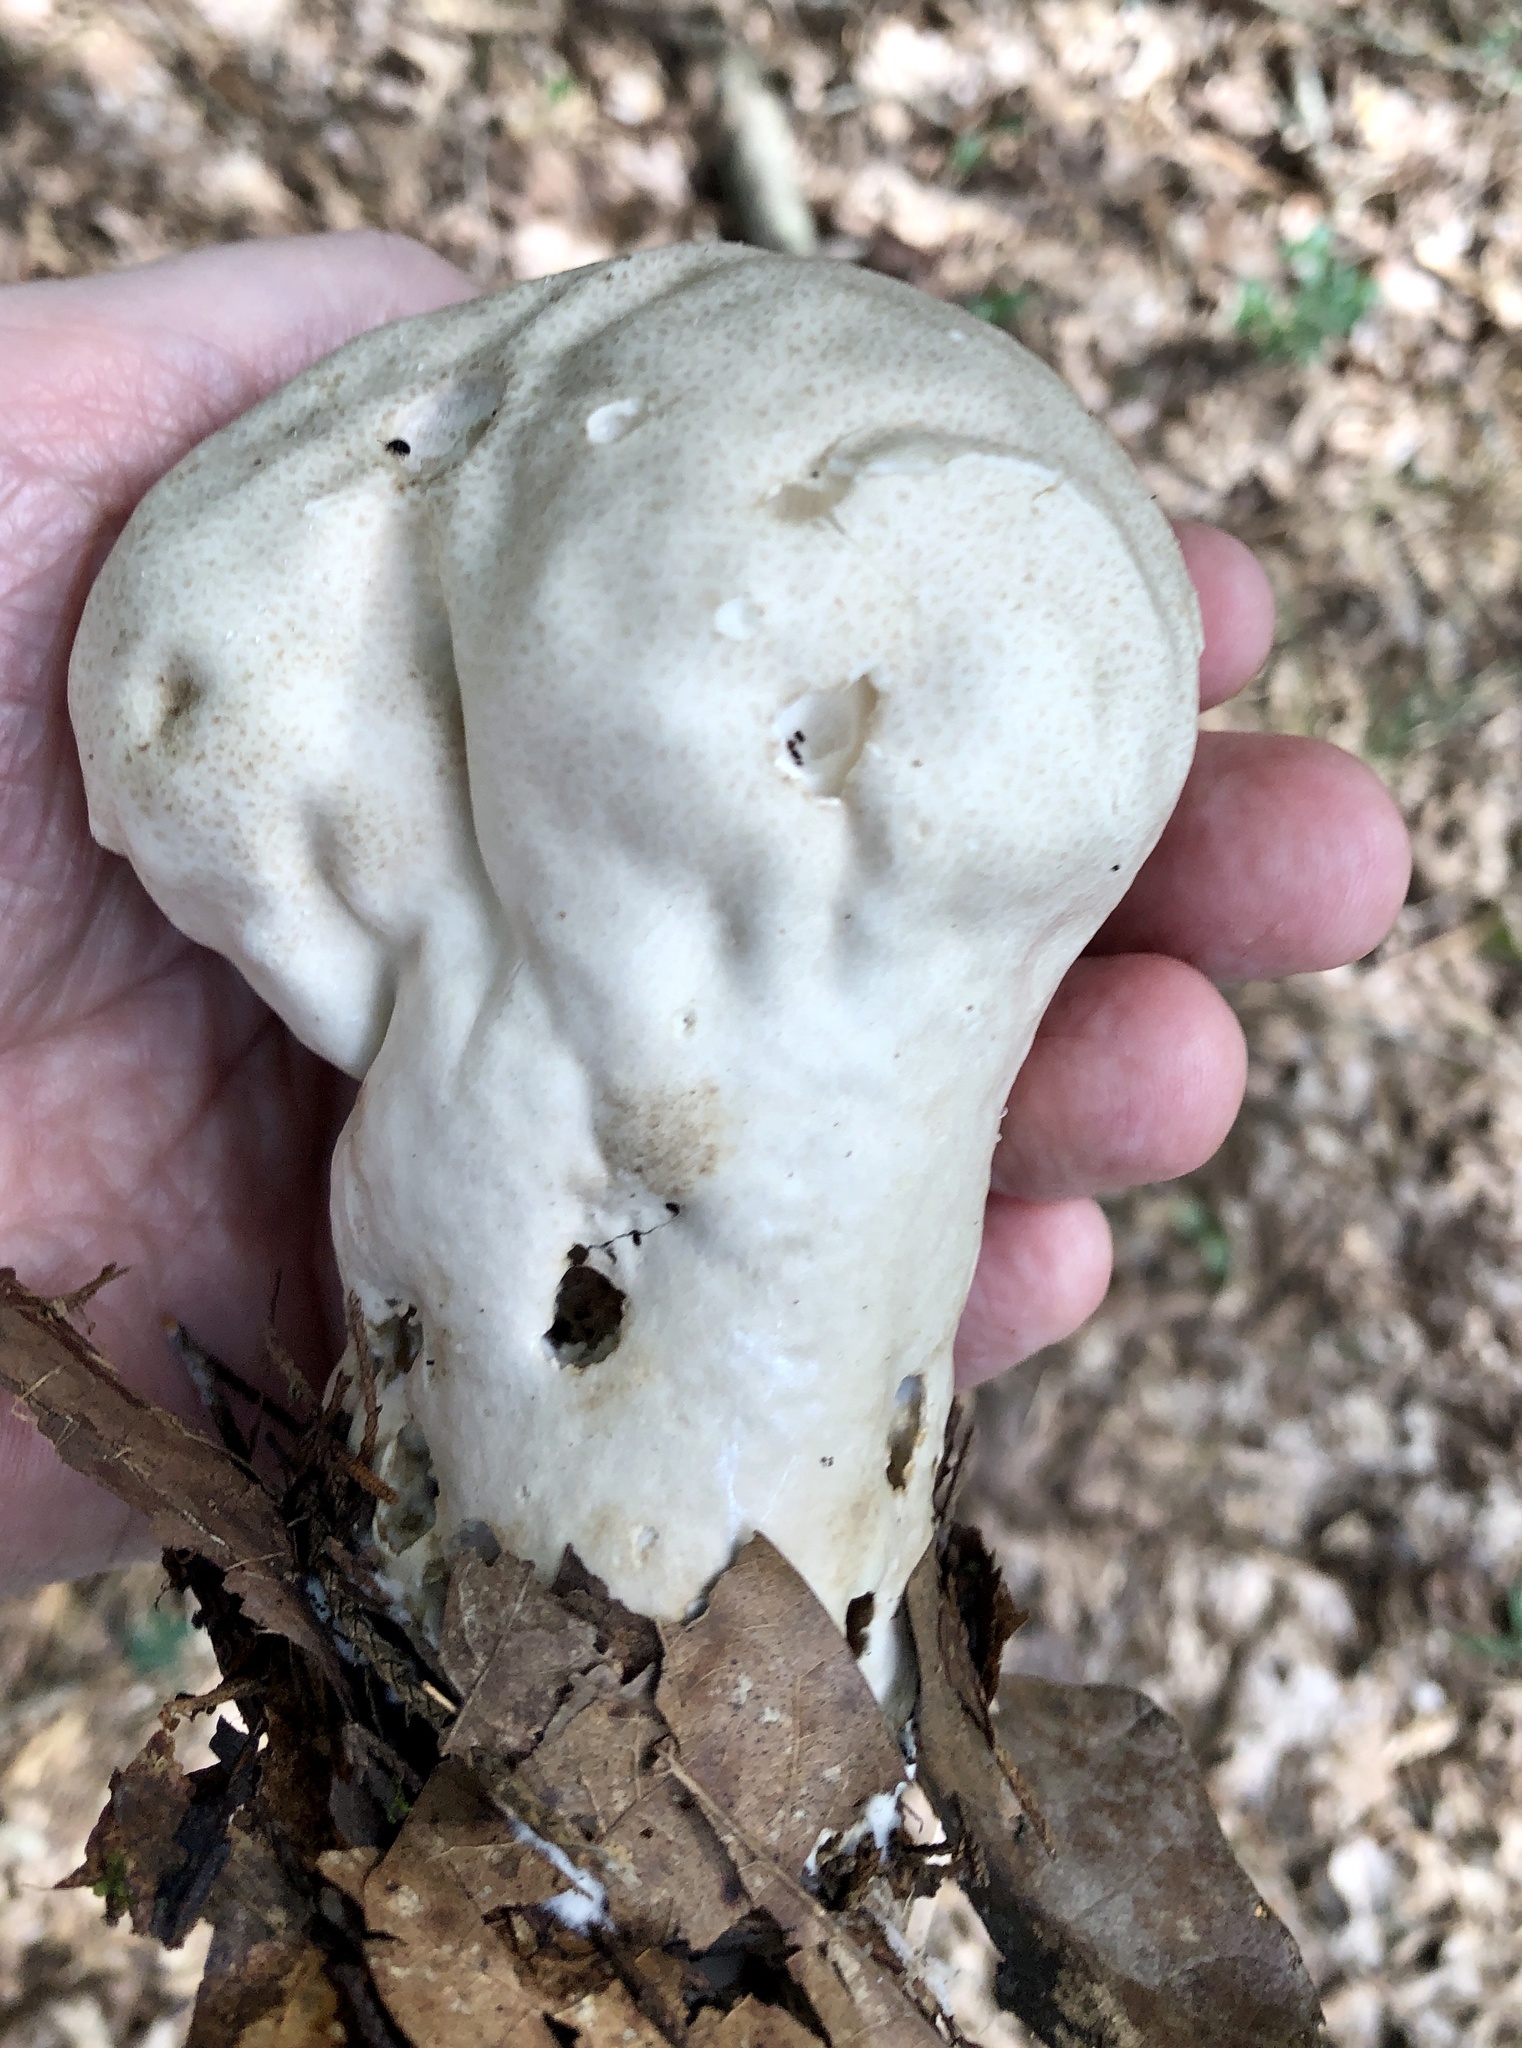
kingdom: Fungi
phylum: Basidiomycota
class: Agaricomycetes
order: Agaricales
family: Lycoperdaceae
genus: Calvatia
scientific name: Calvatia craniiformis
